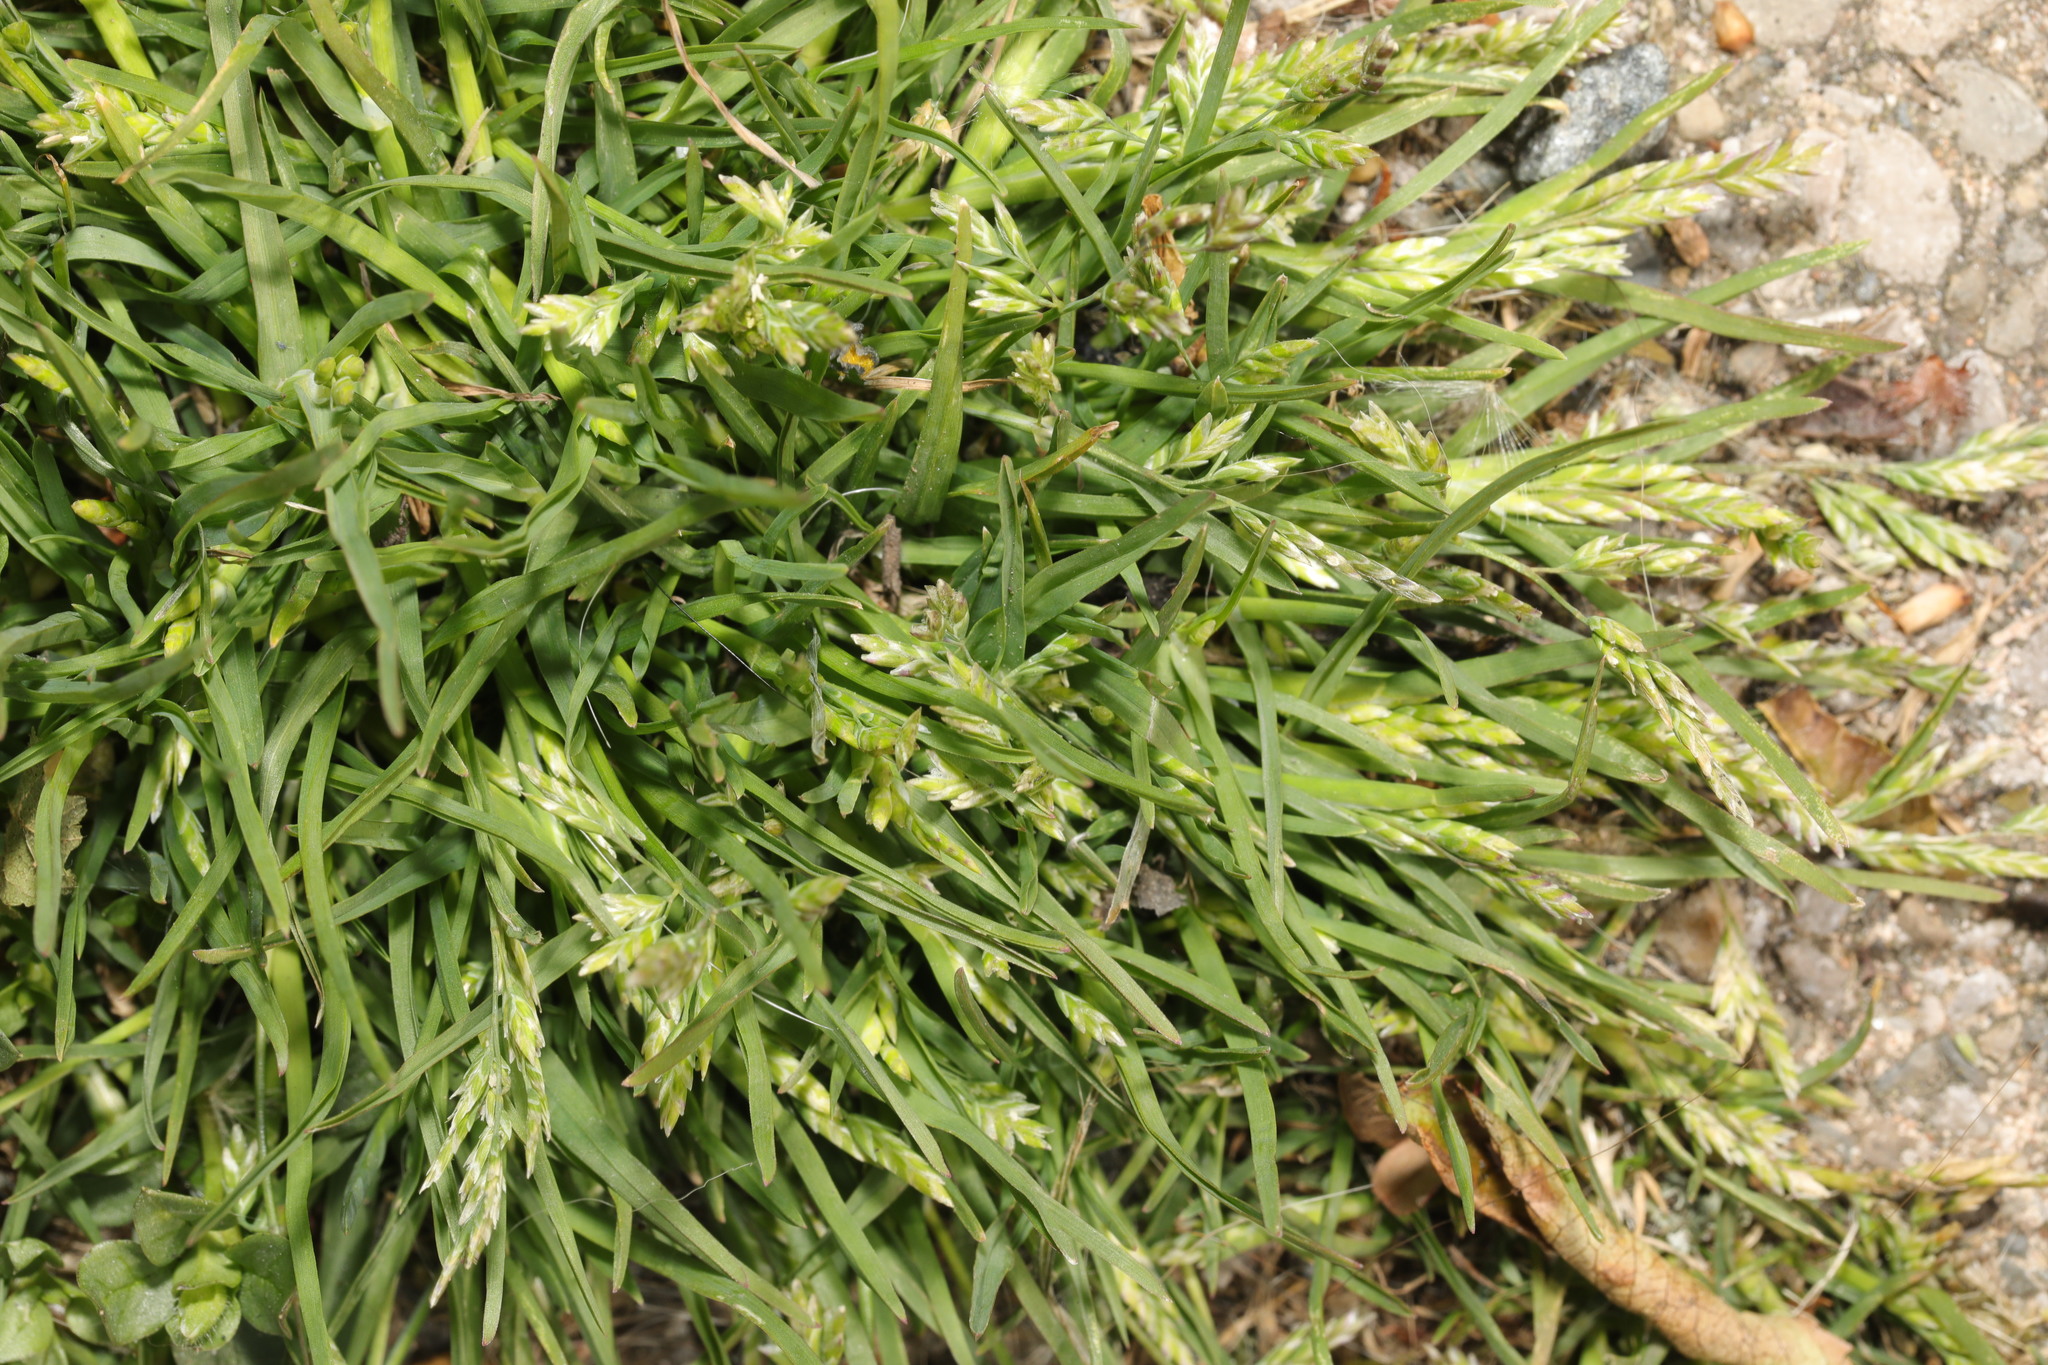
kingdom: Plantae
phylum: Tracheophyta
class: Liliopsida
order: Poales
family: Poaceae
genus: Poa
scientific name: Poa annua
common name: Annual bluegrass
